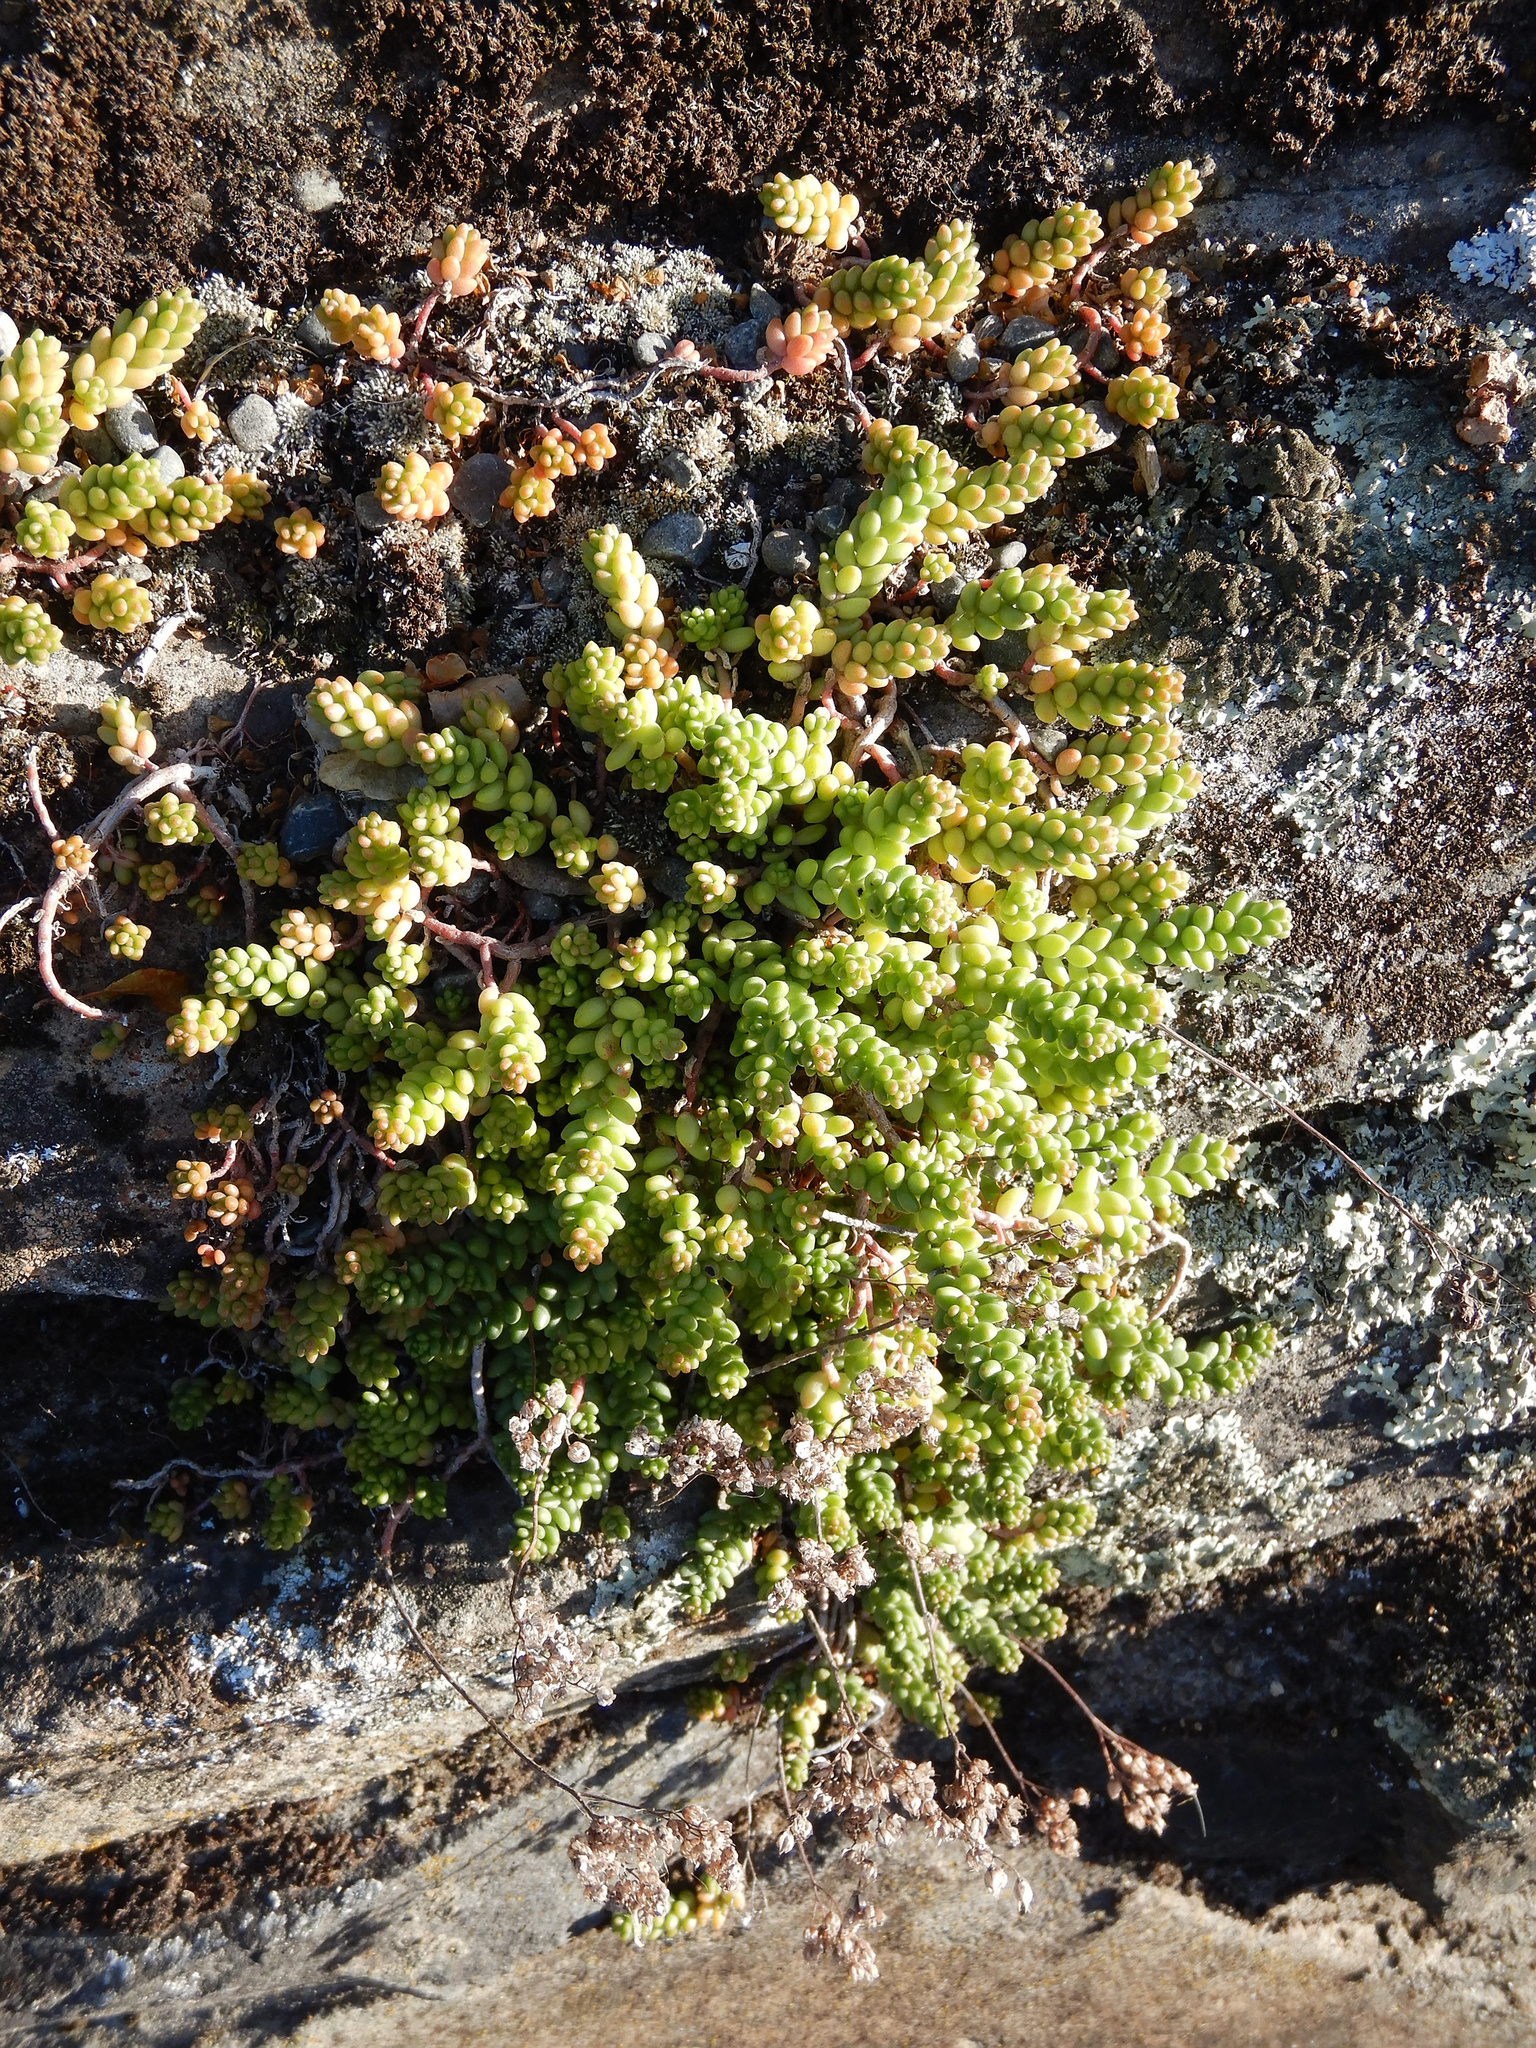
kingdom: Plantae
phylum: Tracheophyta
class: Magnoliopsida
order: Saxifragales
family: Crassulaceae
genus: Sedum
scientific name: Sedum album
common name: White stonecrop
